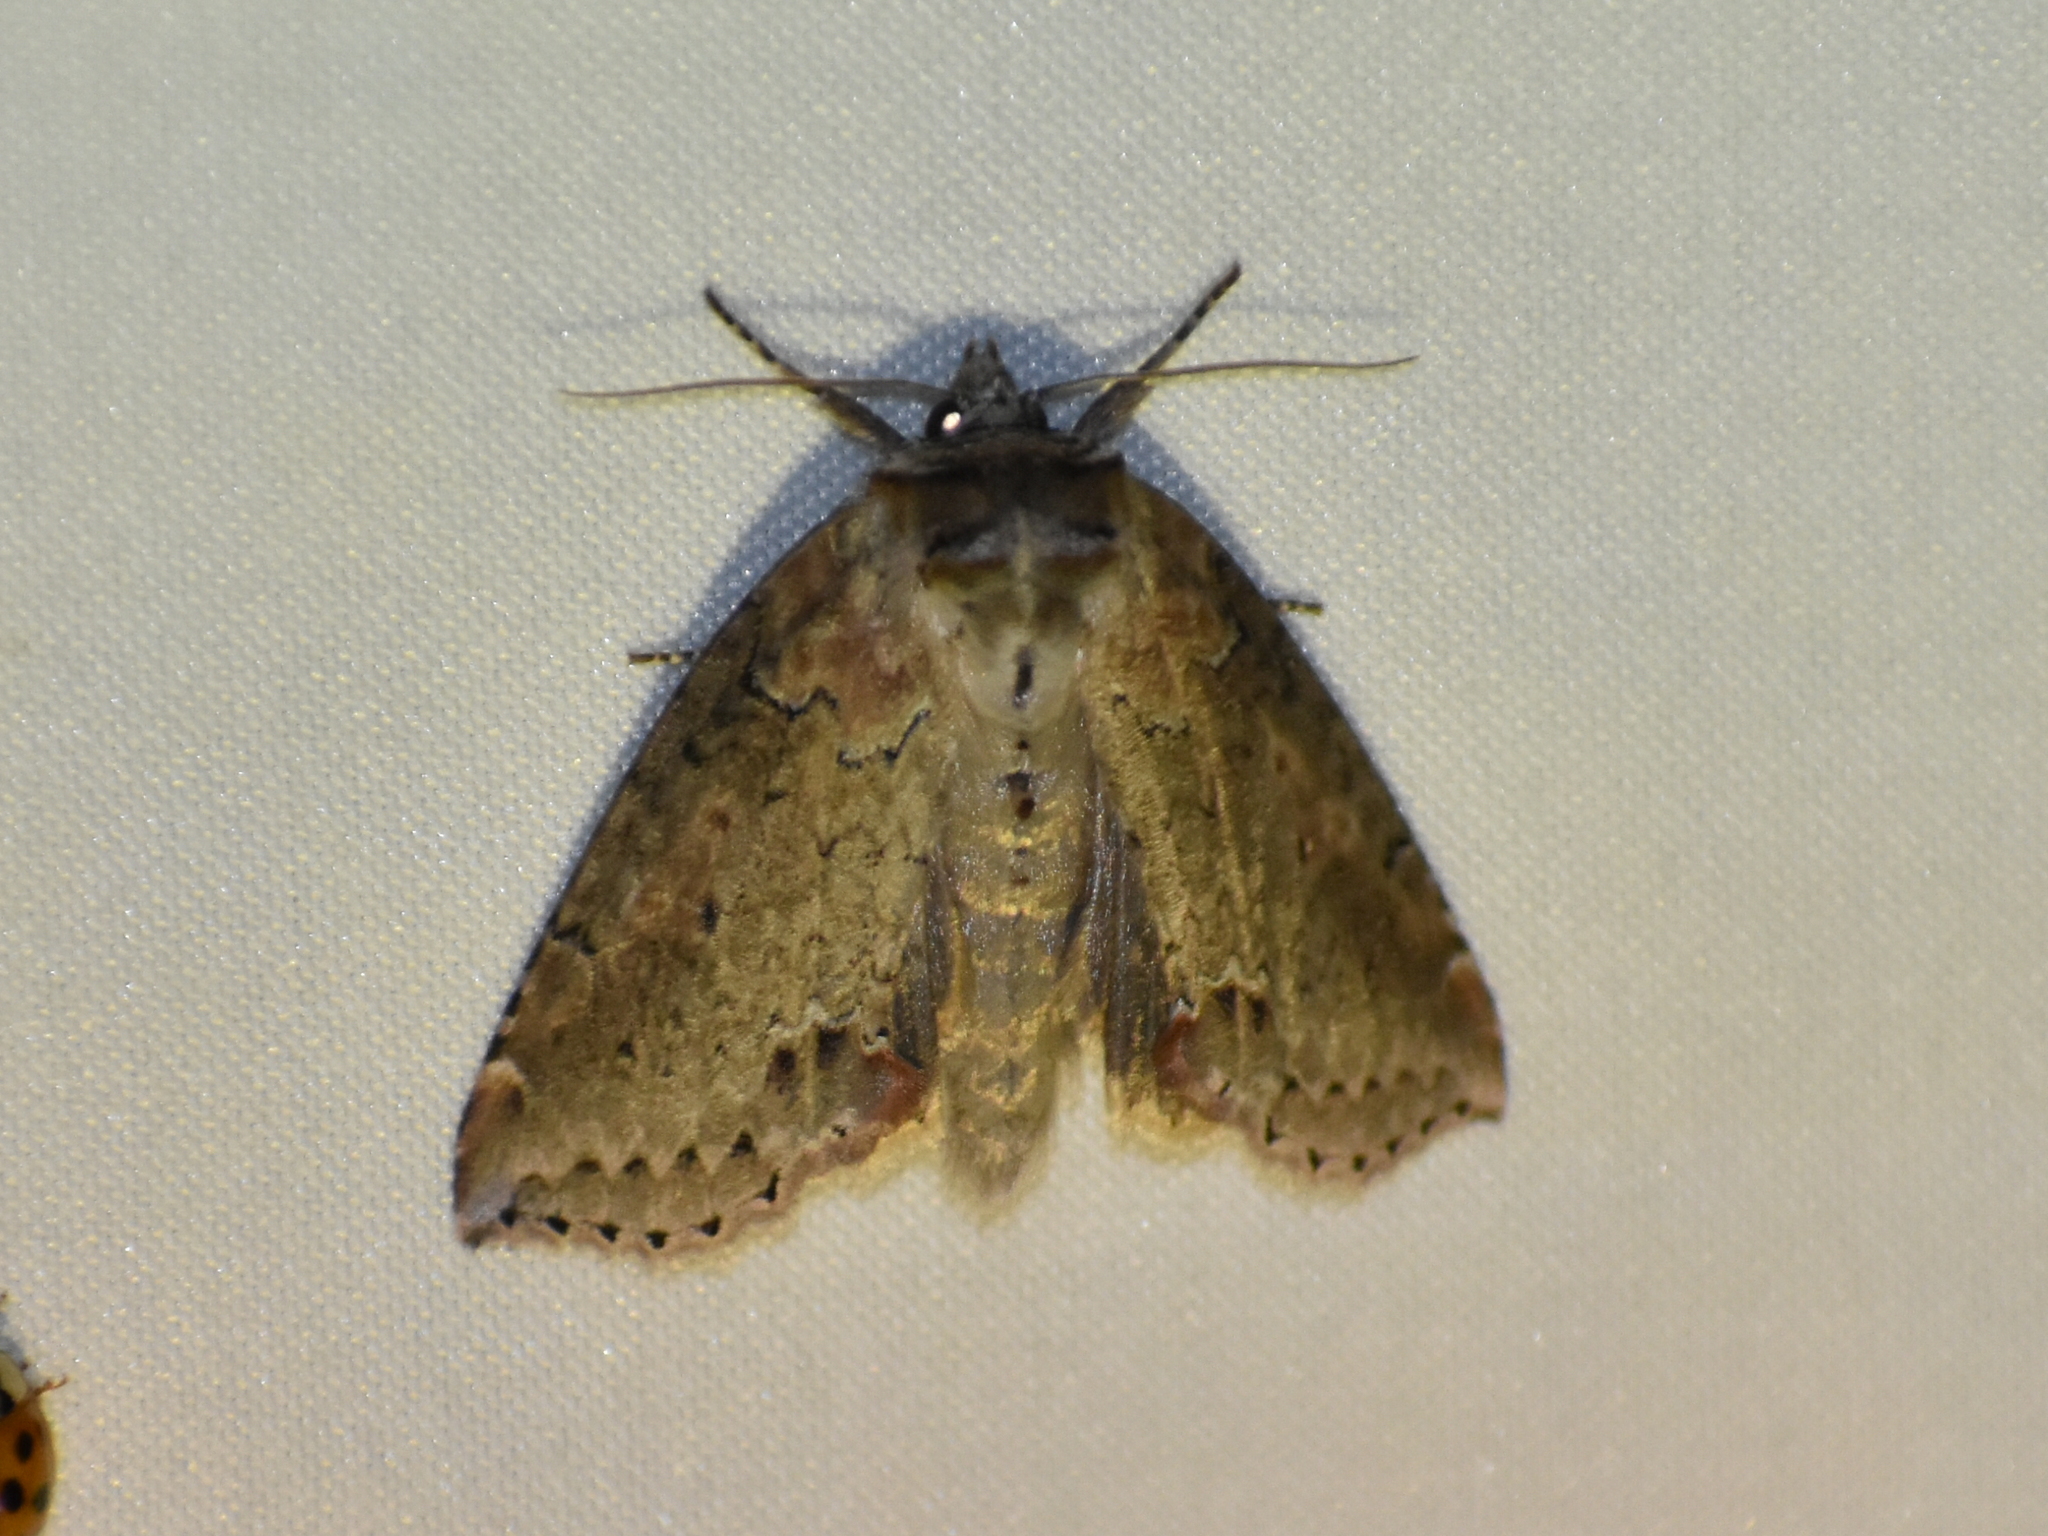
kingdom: Animalia
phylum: Arthropoda
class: Insecta
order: Lepidoptera
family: Drepanidae
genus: Pseudothyatira
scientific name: Pseudothyatira cymatophoroides
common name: Tufted thyatirid moth
